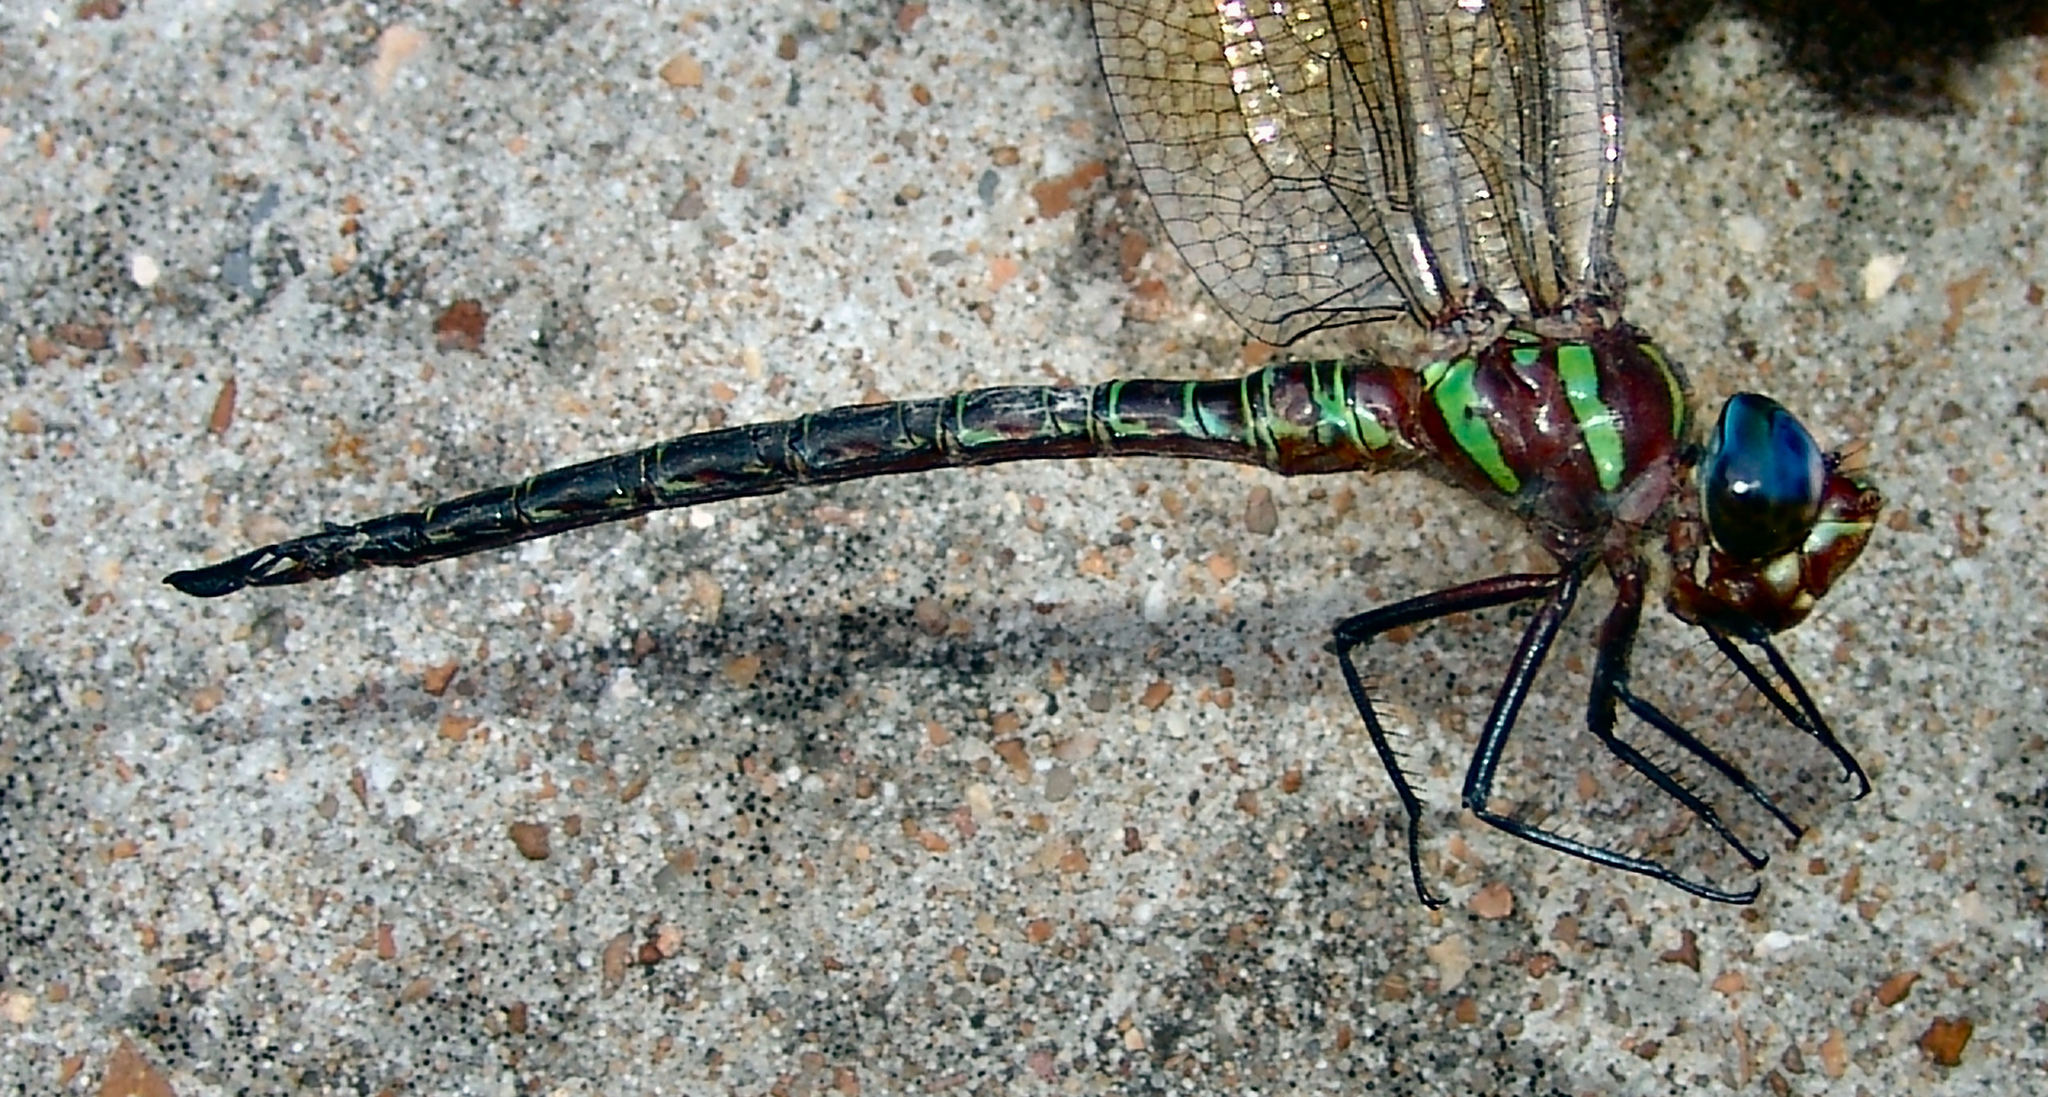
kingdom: Animalia
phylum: Arthropoda
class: Insecta
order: Odonata
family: Aeshnidae
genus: Epiaeschna
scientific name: Epiaeschna heros
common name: Swamp darner
